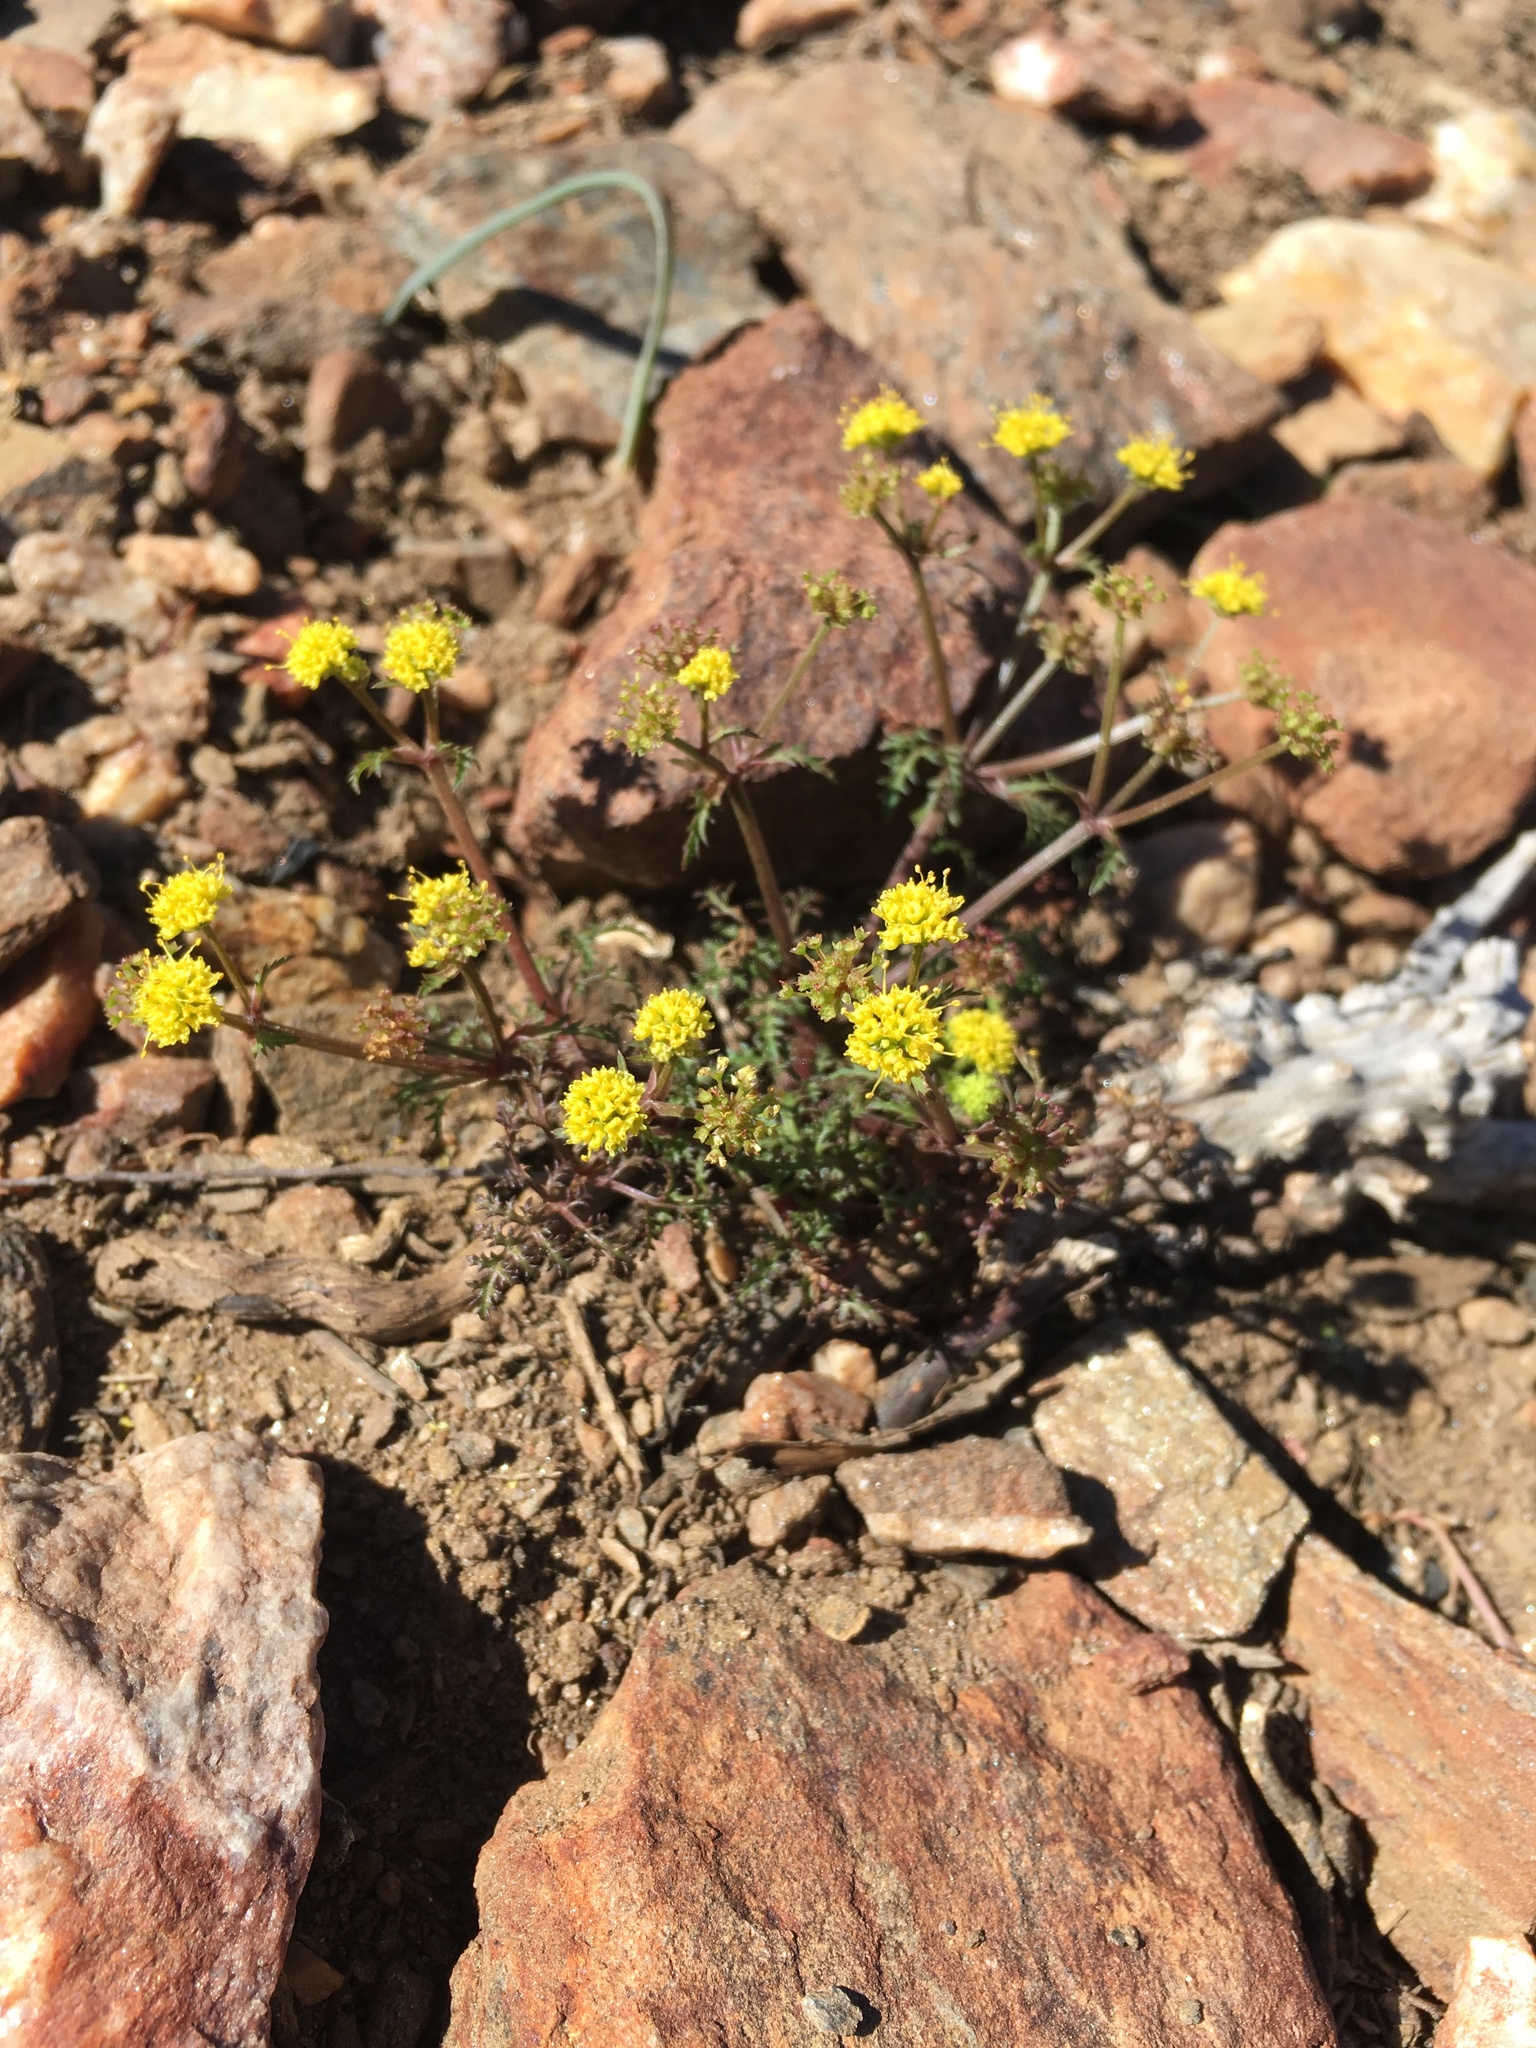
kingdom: Plantae
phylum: Tracheophyta
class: Magnoliopsida
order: Apiales
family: Apiaceae
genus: Sanicula
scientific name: Sanicula tuberosa
